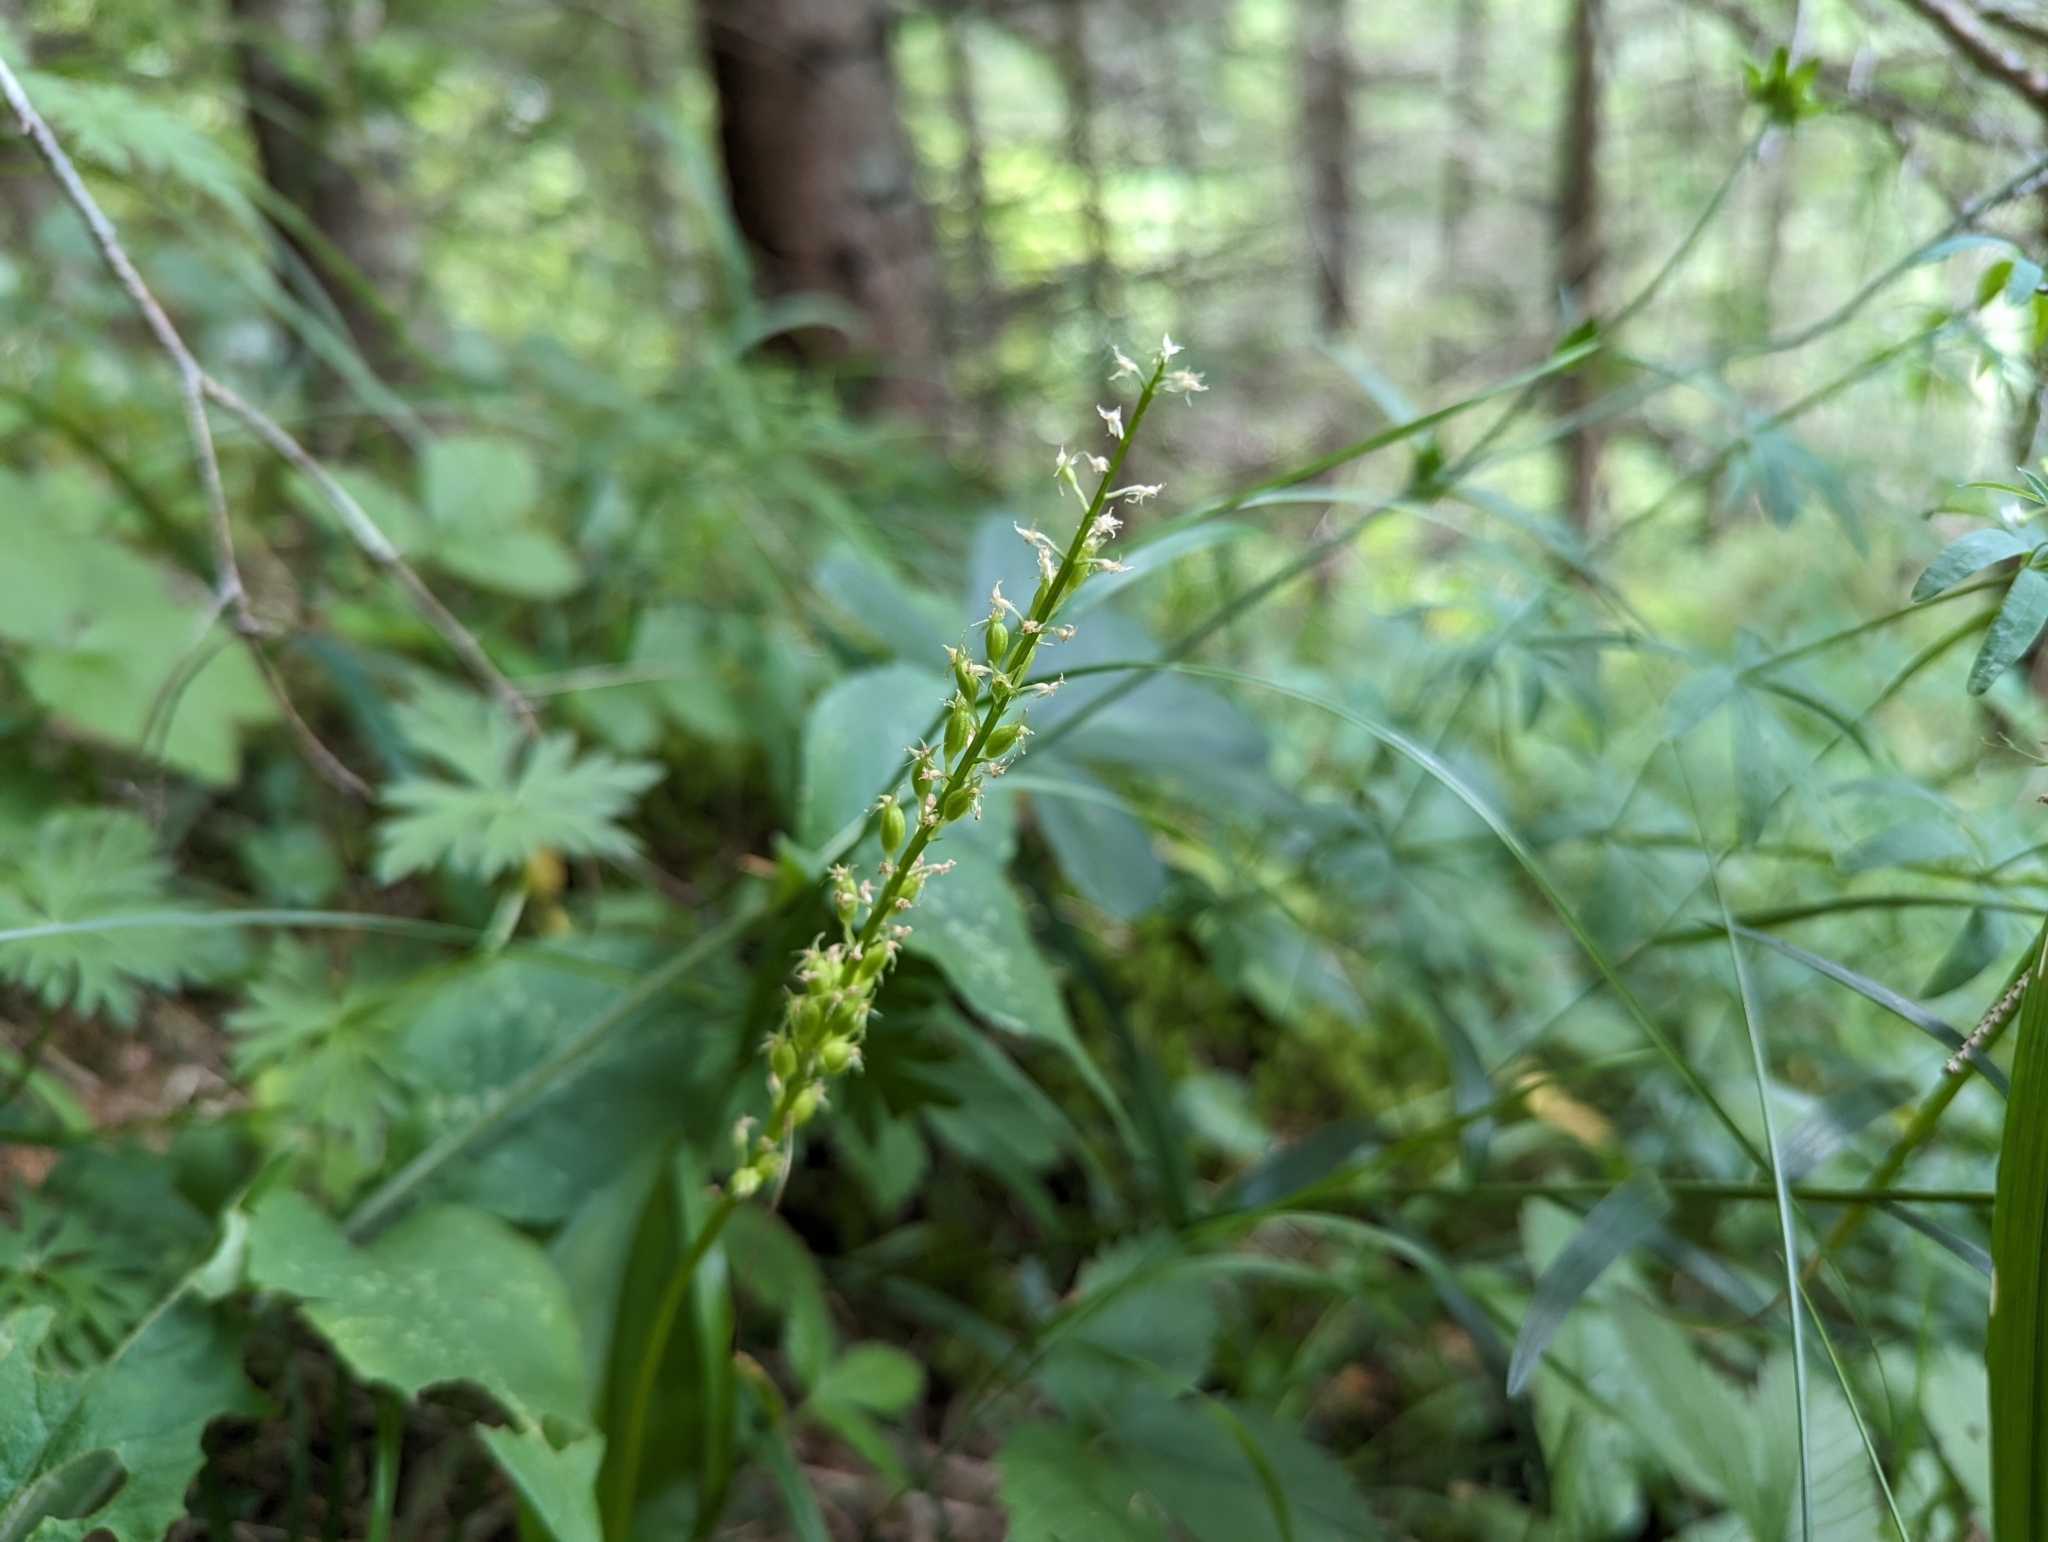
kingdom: Plantae
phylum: Tracheophyta
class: Liliopsida
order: Asparagales
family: Orchidaceae
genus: Malaxis
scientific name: Malaxis monophyllos
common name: White adder's-mouth
